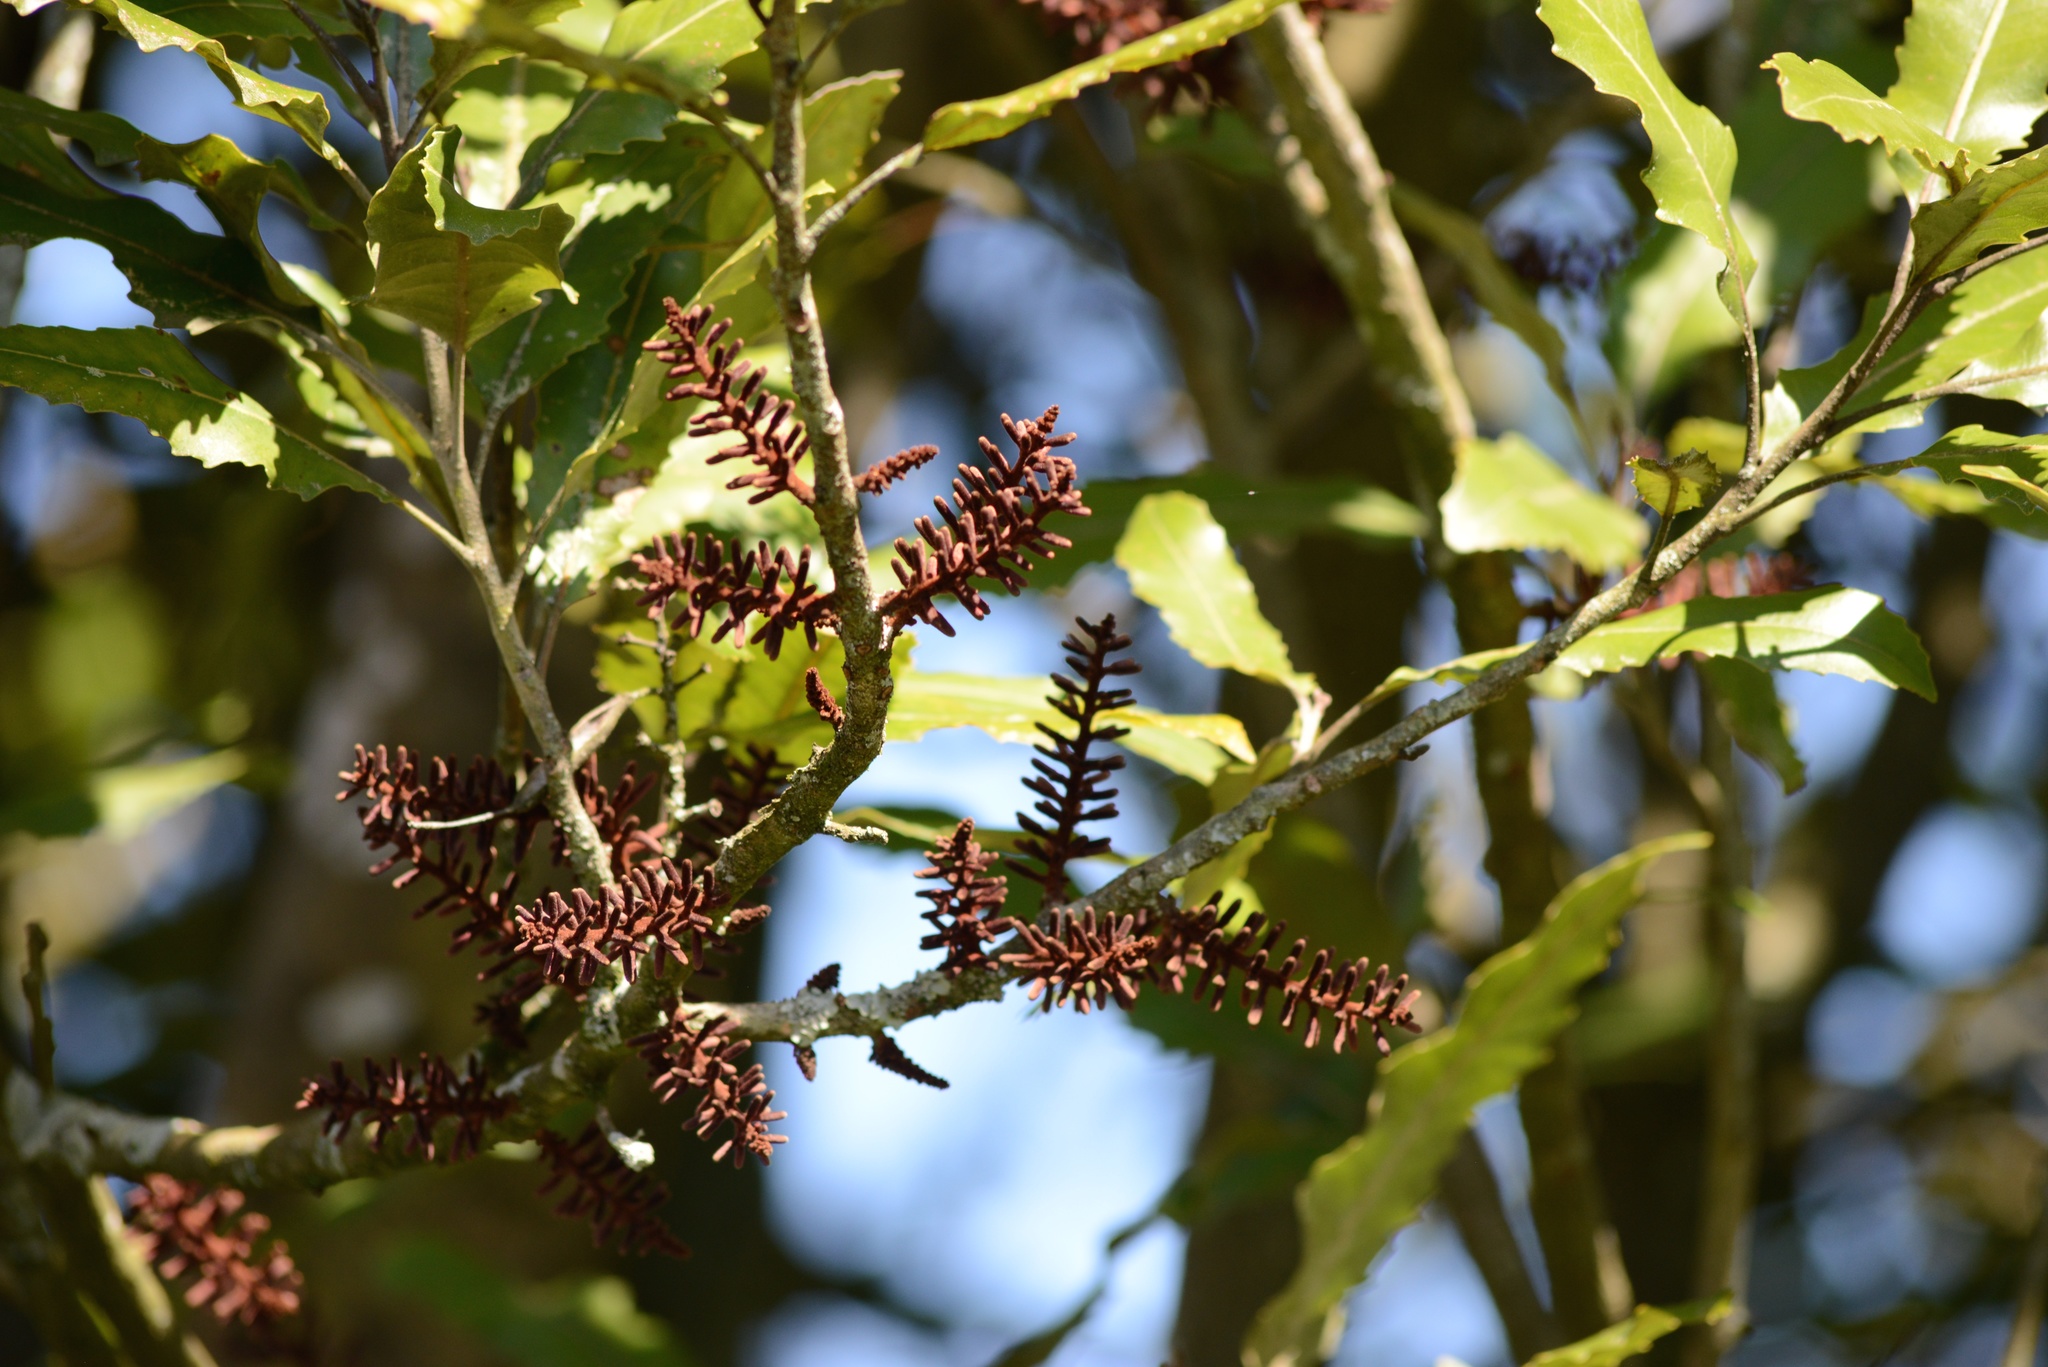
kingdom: Plantae
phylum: Tracheophyta
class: Magnoliopsida
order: Proteales
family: Proteaceae
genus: Knightia
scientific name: Knightia excelsa
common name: New zealand-honeysuckle
